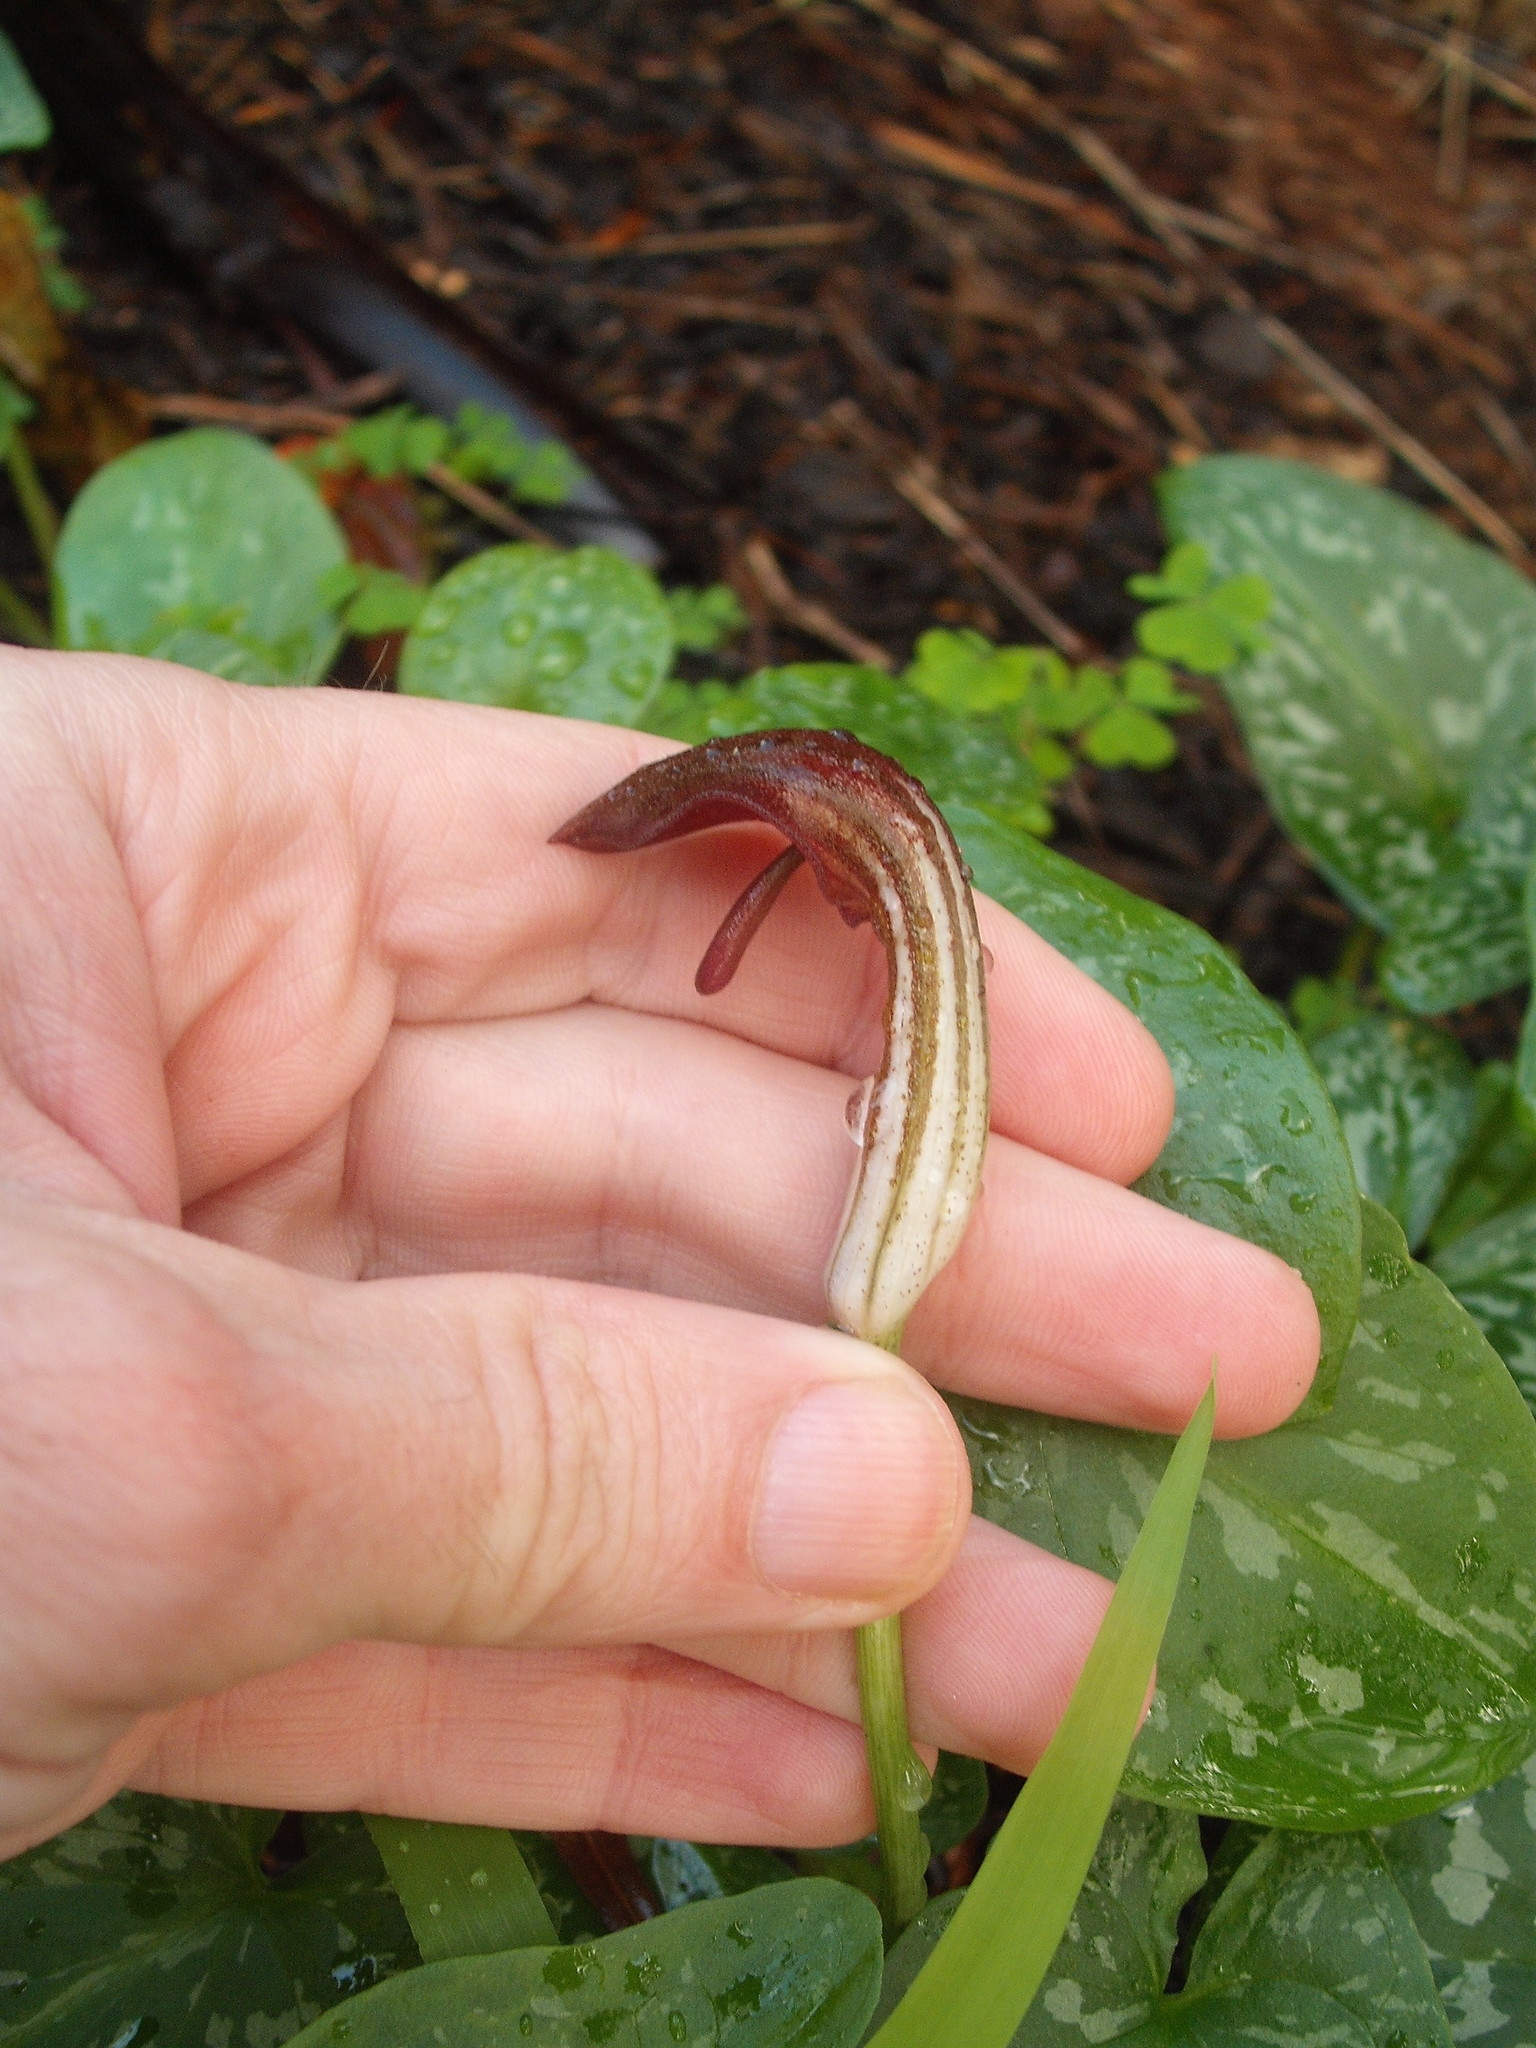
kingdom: Plantae
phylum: Tracheophyta
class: Liliopsida
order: Alismatales
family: Araceae
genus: Arisarum
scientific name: Arisarum vulgare
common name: Common arisarum
